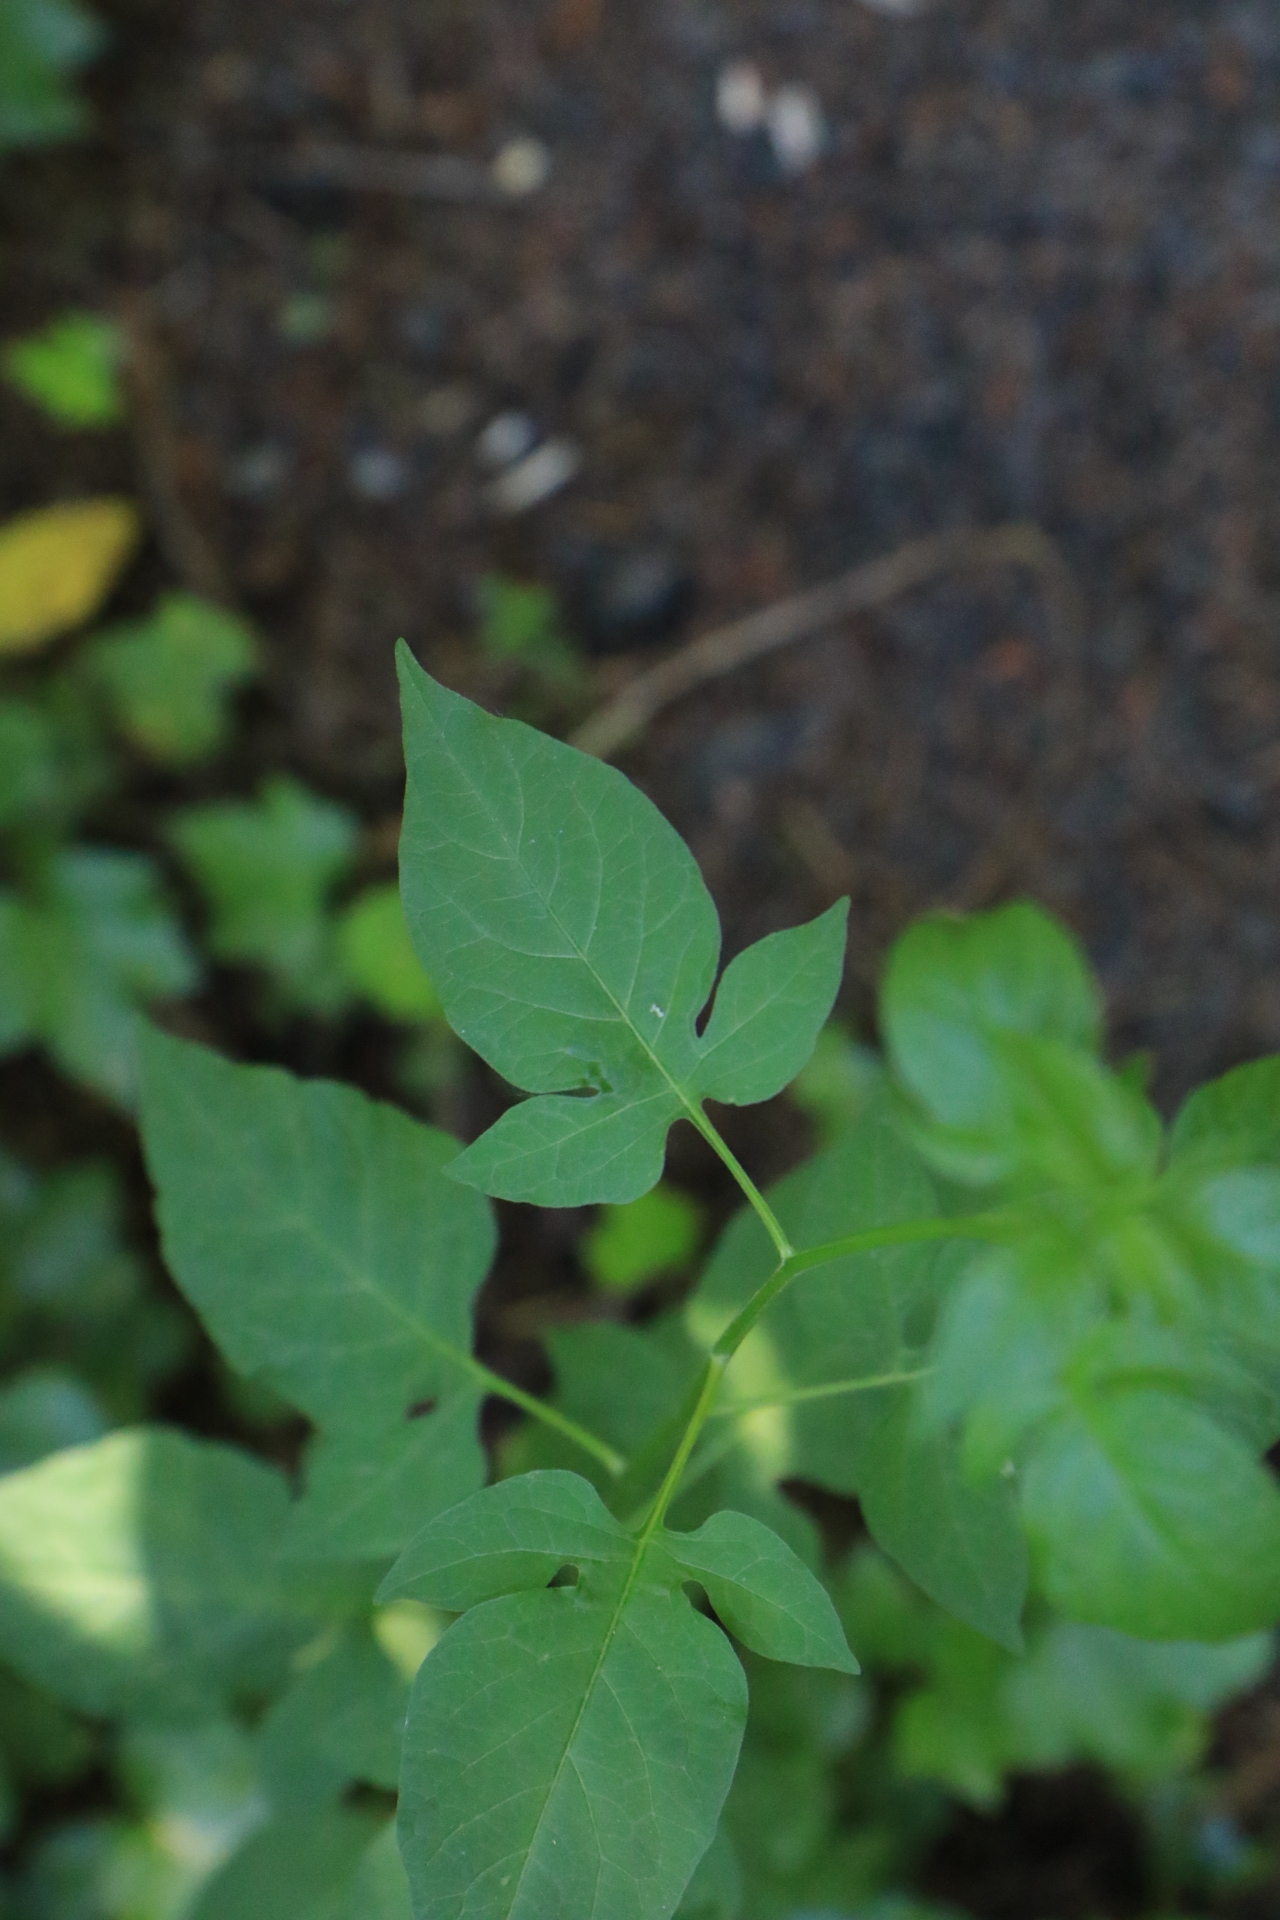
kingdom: Plantae
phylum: Tracheophyta
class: Magnoliopsida
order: Solanales
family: Solanaceae
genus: Solanum
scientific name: Solanum dulcamara
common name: Climbing nightshade
